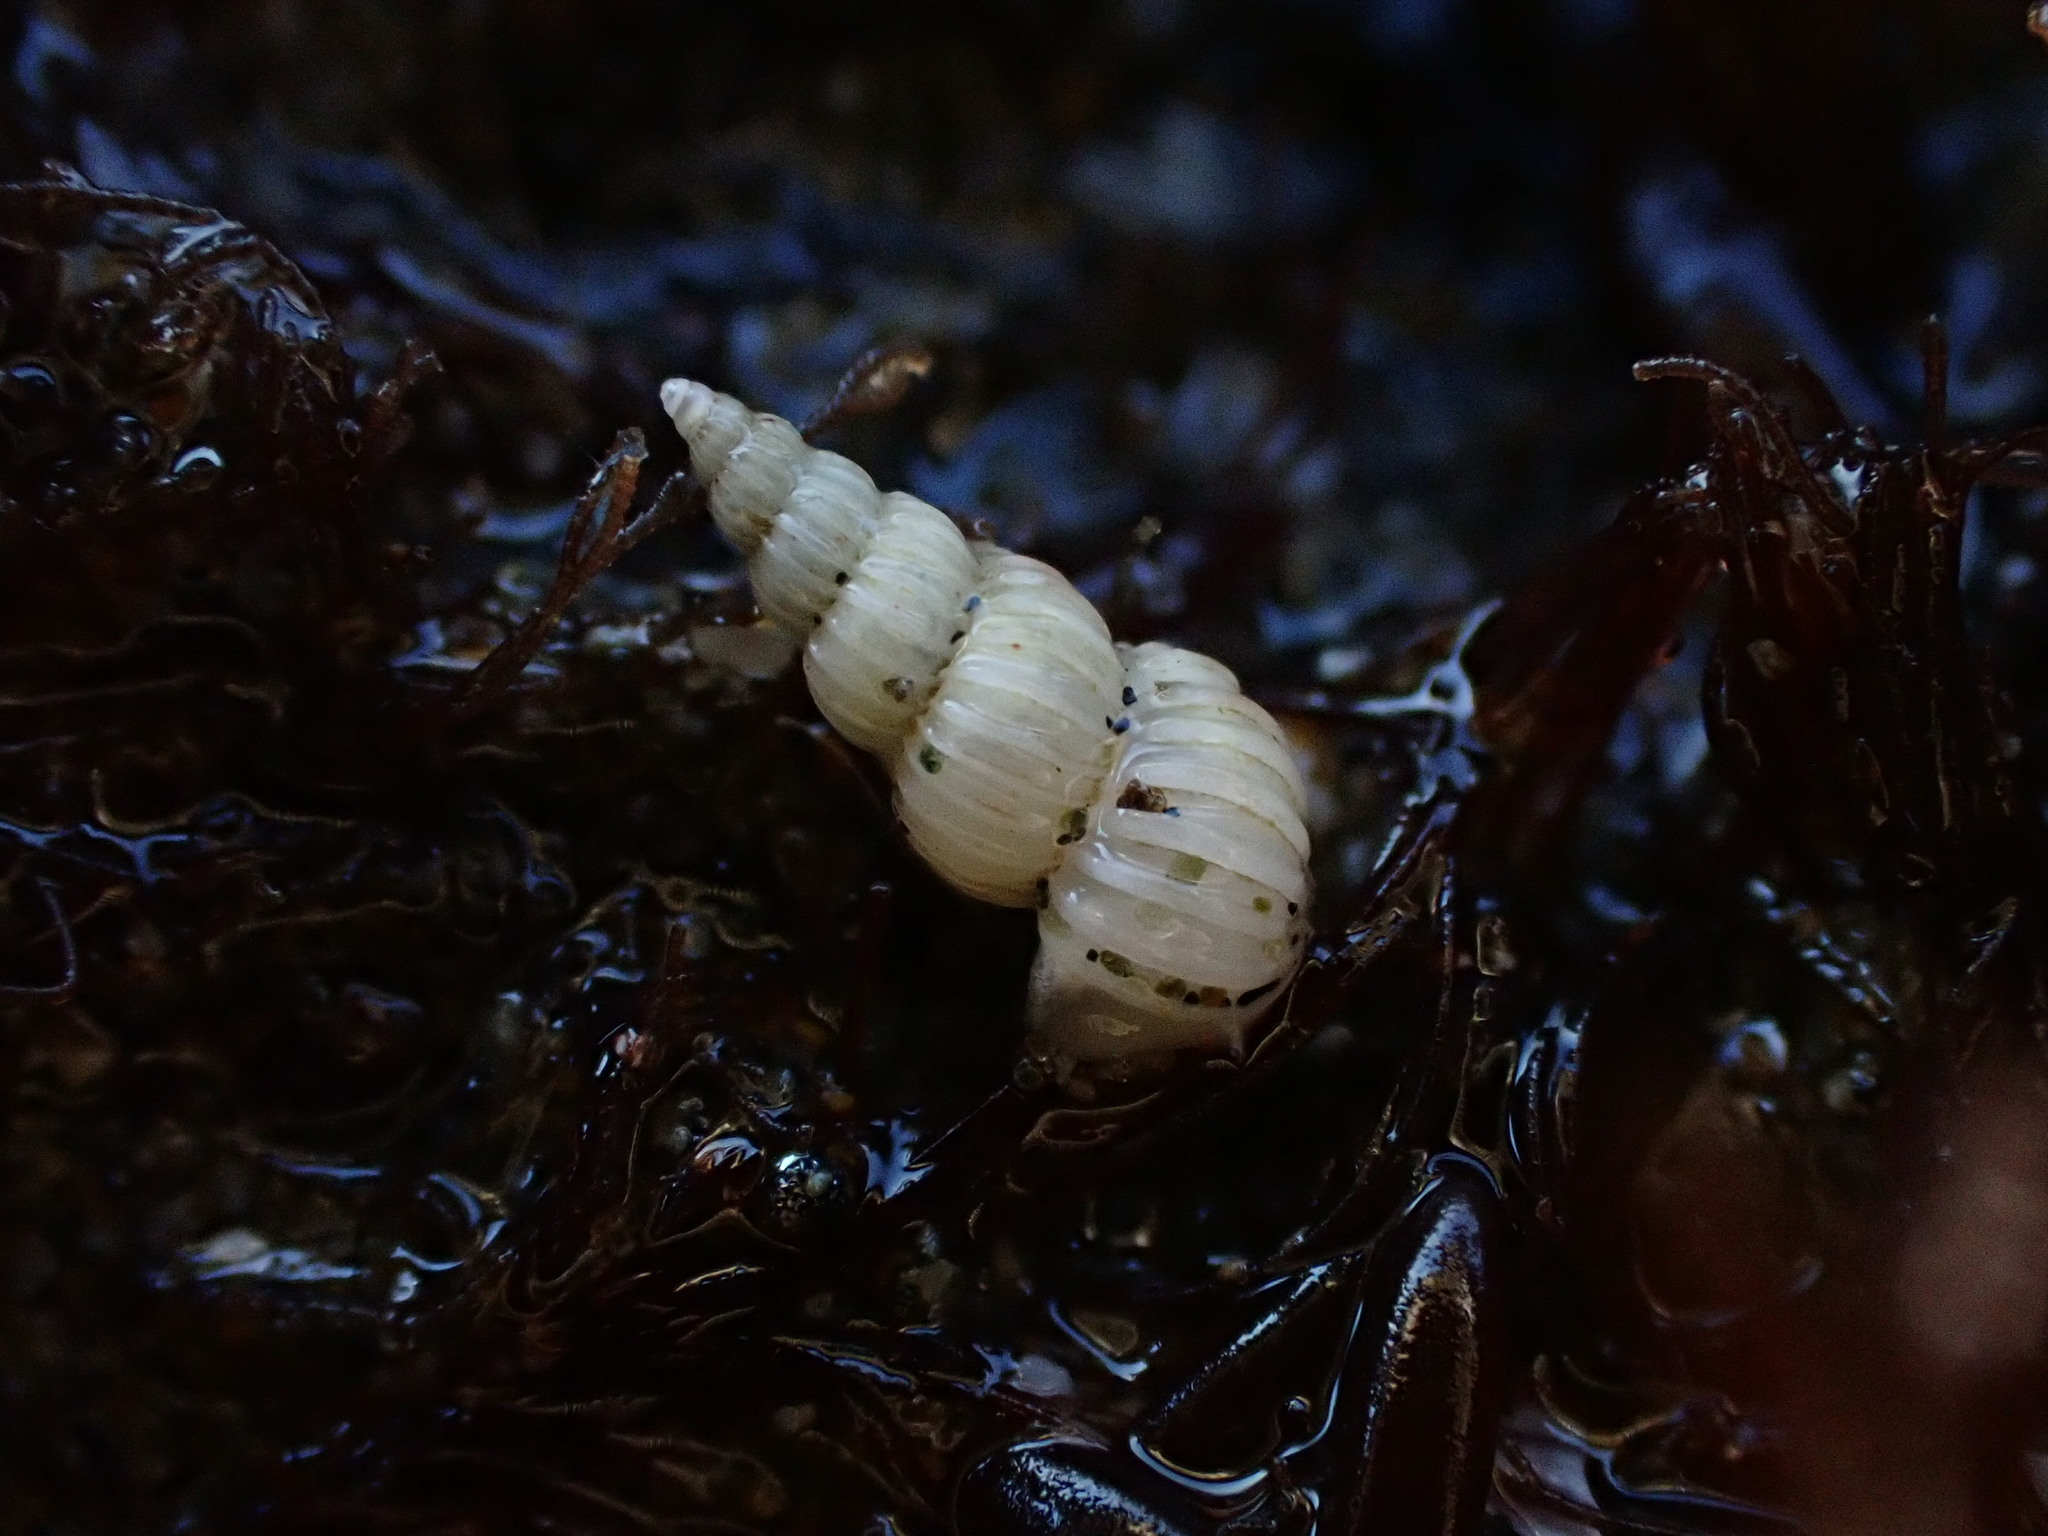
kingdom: Animalia
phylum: Mollusca
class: Gastropoda
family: Epitoniidae
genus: Epitonium
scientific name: Epitonium jukesianum
